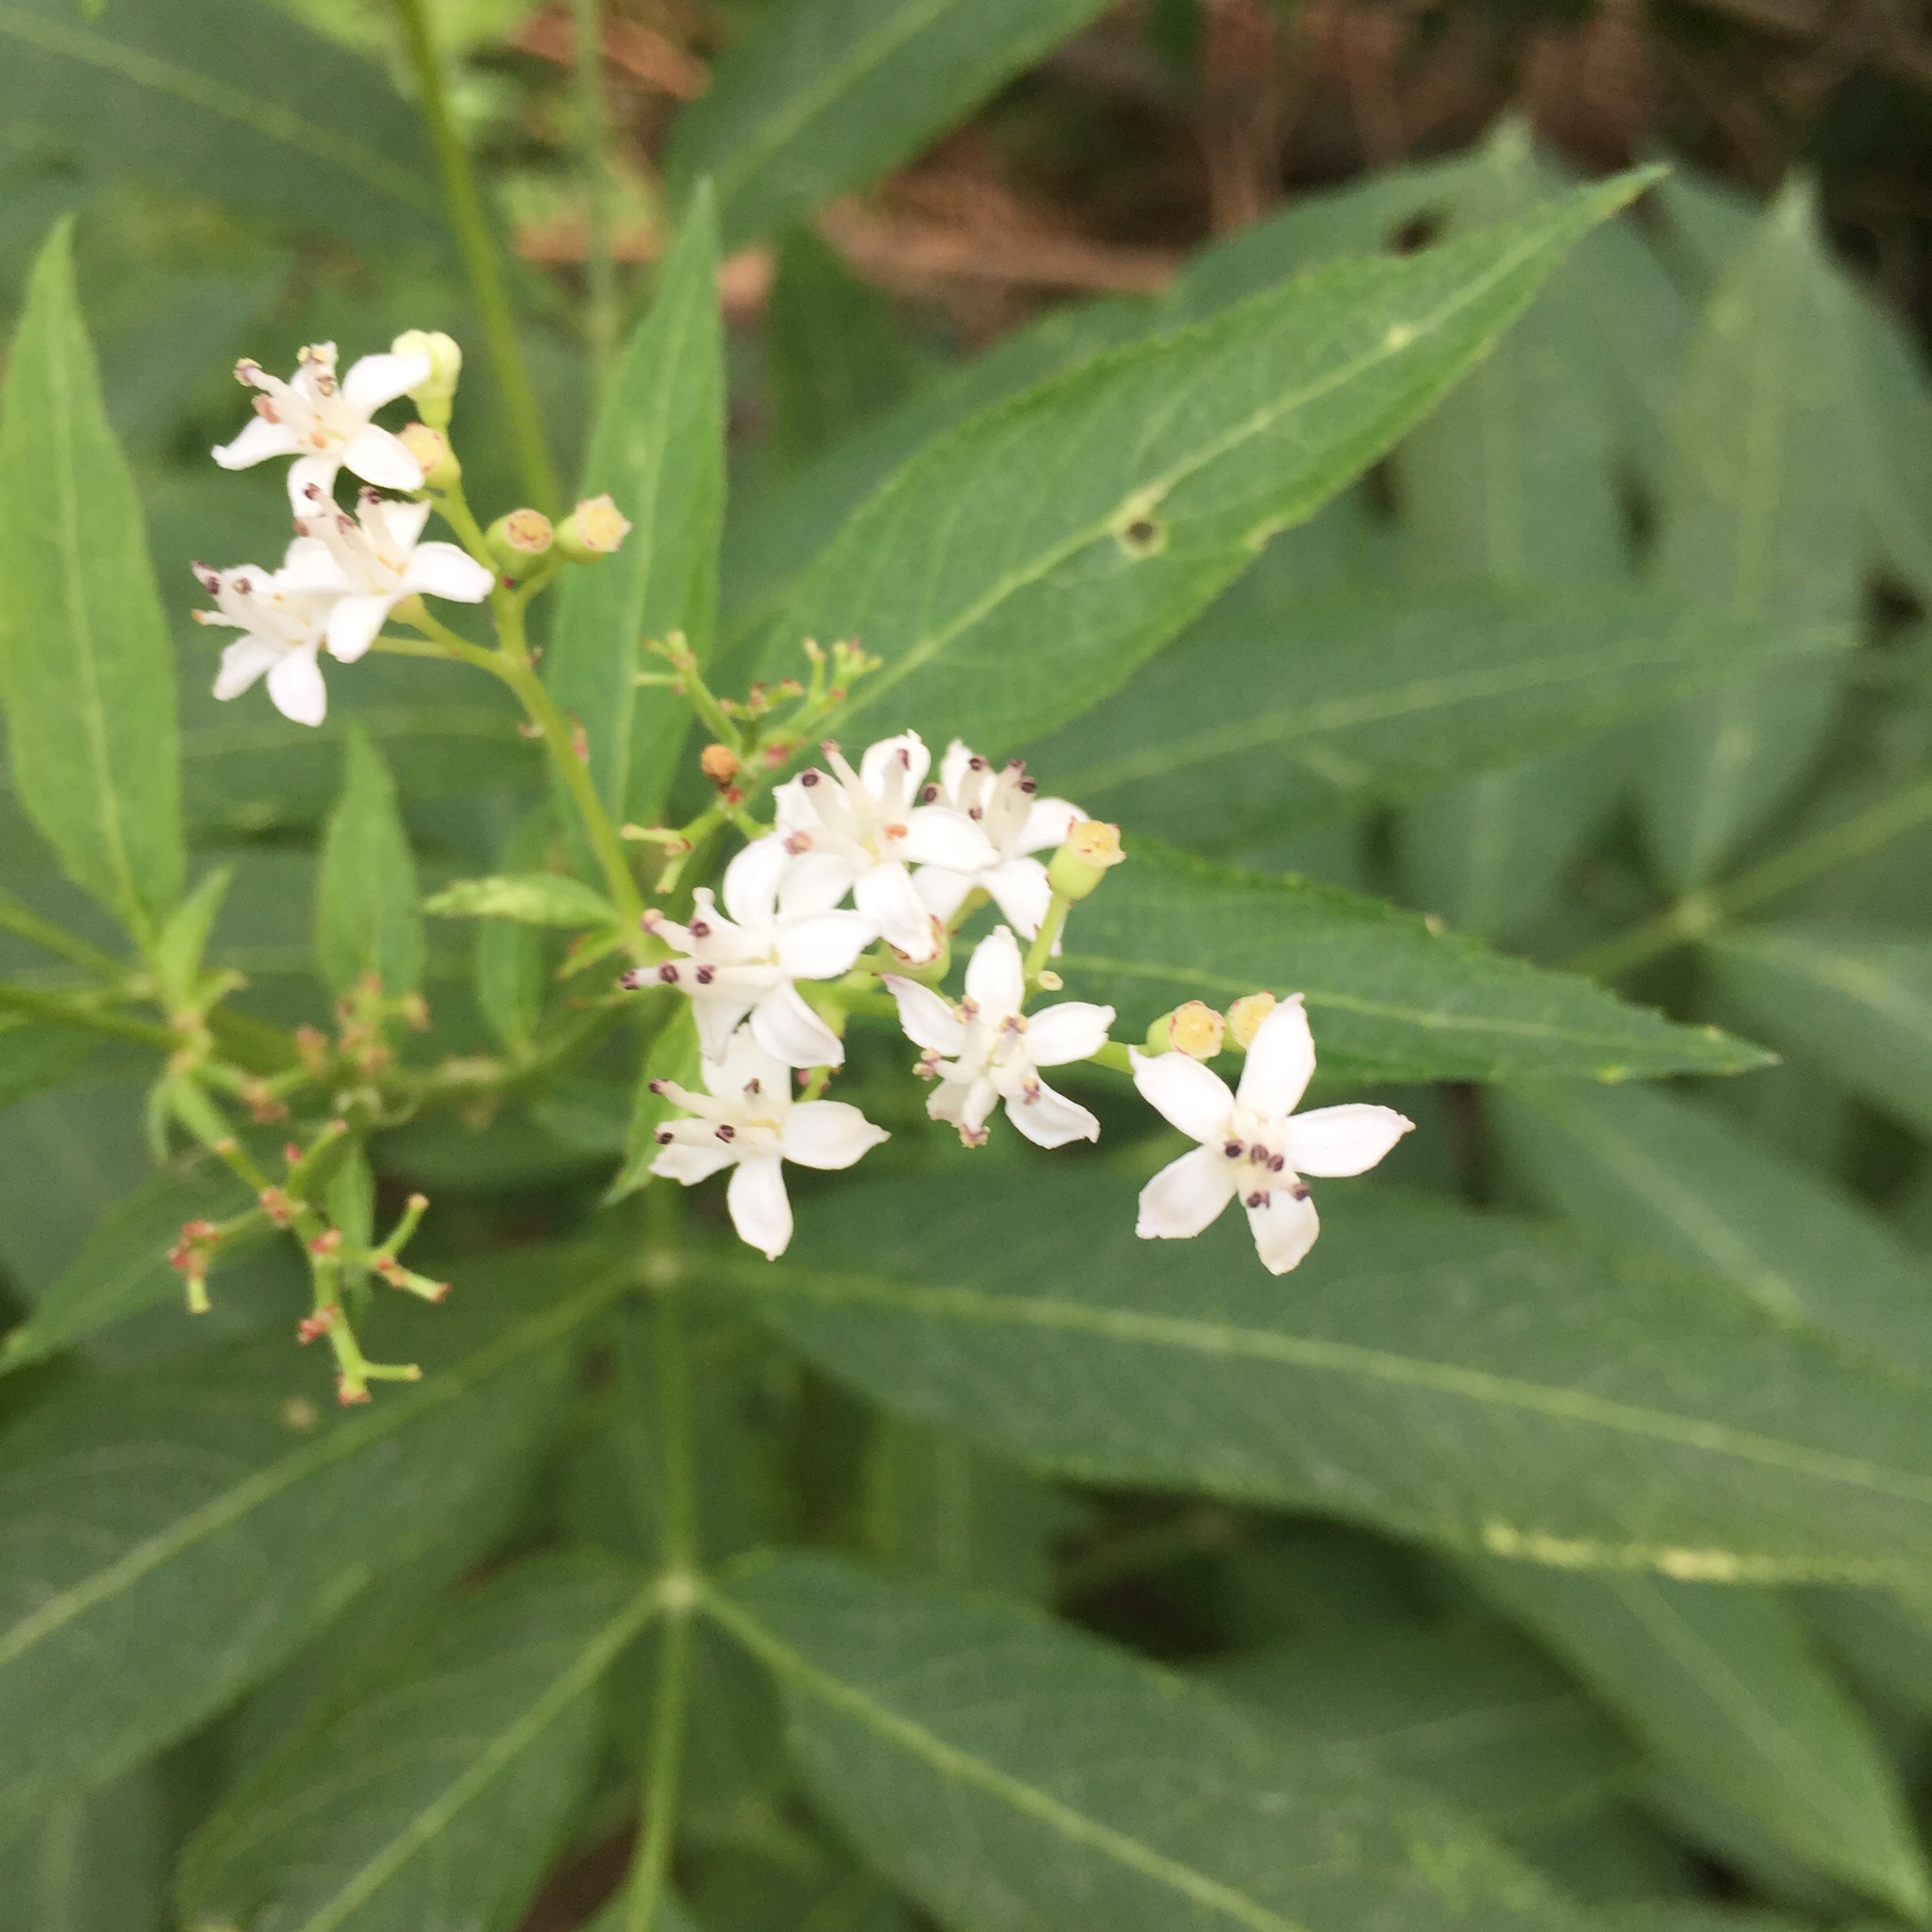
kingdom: Plantae
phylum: Tracheophyta
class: Magnoliopsida
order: Dipsacales
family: Viburnaceae
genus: Sambucus
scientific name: Sambucus ebulus
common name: Dwarf elder
